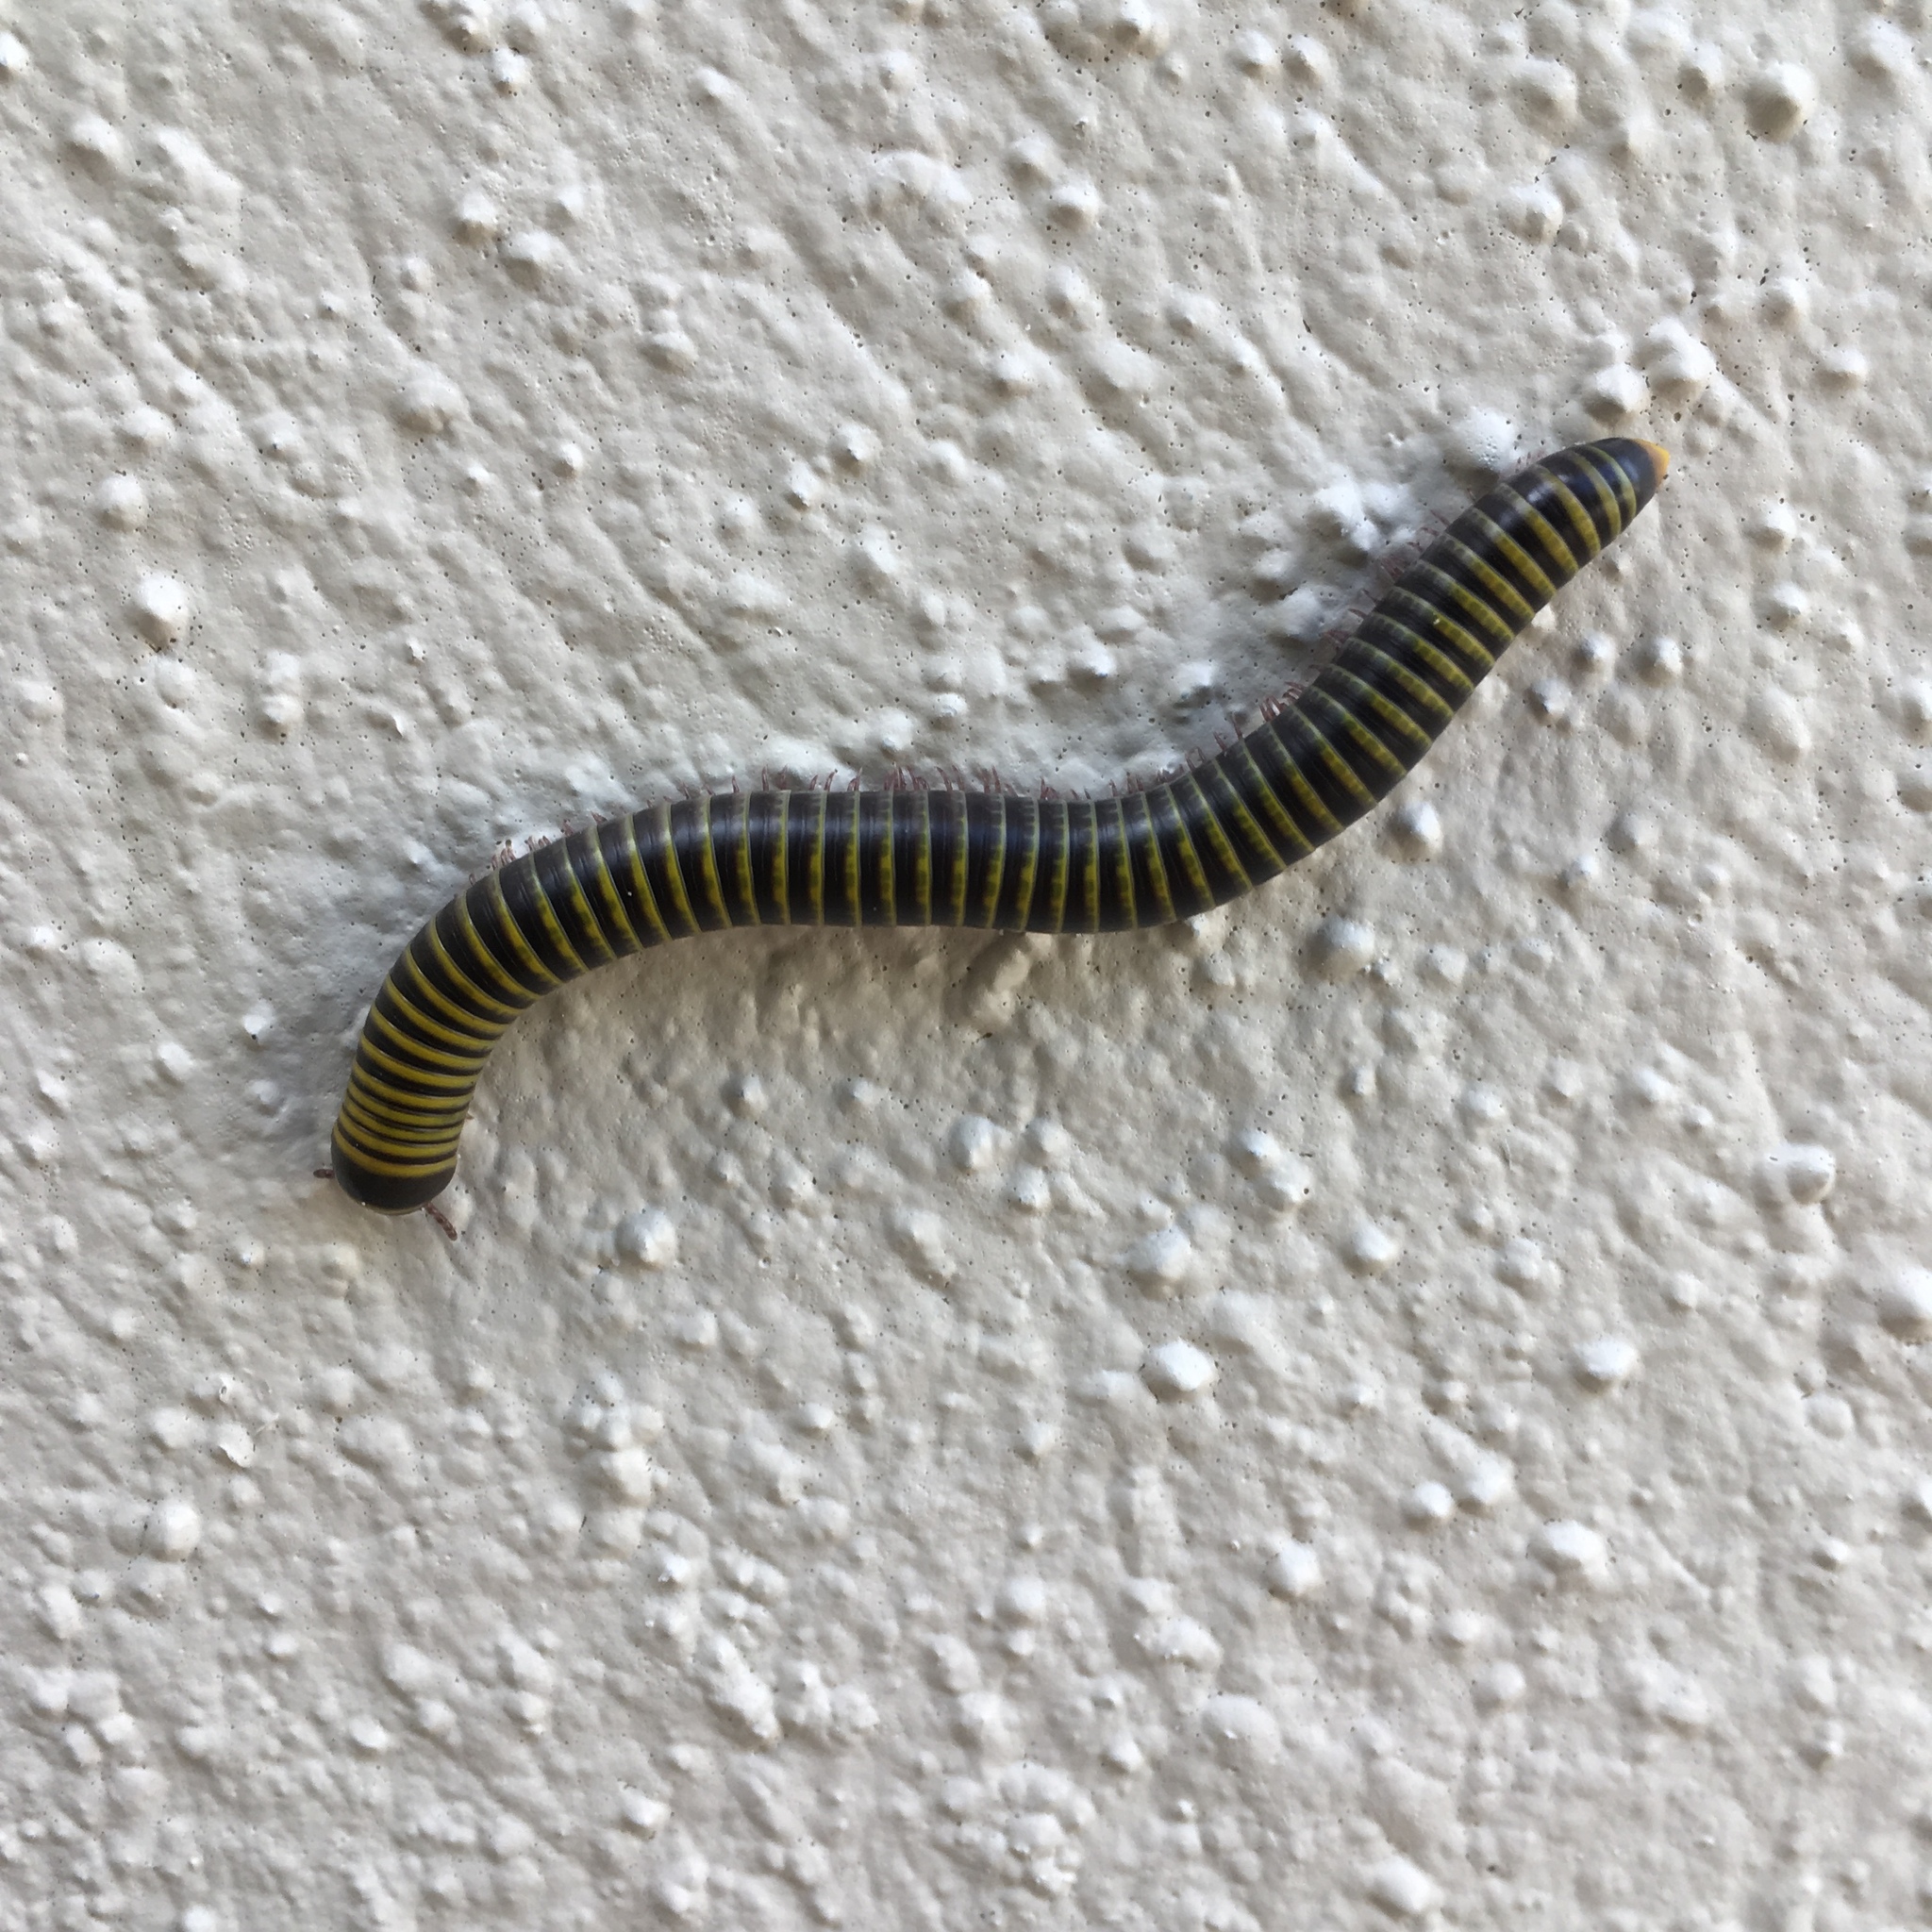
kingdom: Animalia
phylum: Arthropoda
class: Diplopoda
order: Spirobolida
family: Rhinocricidae
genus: Anadenobolus
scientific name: Anadenobolus monilicornis
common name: Caribbean millipede
